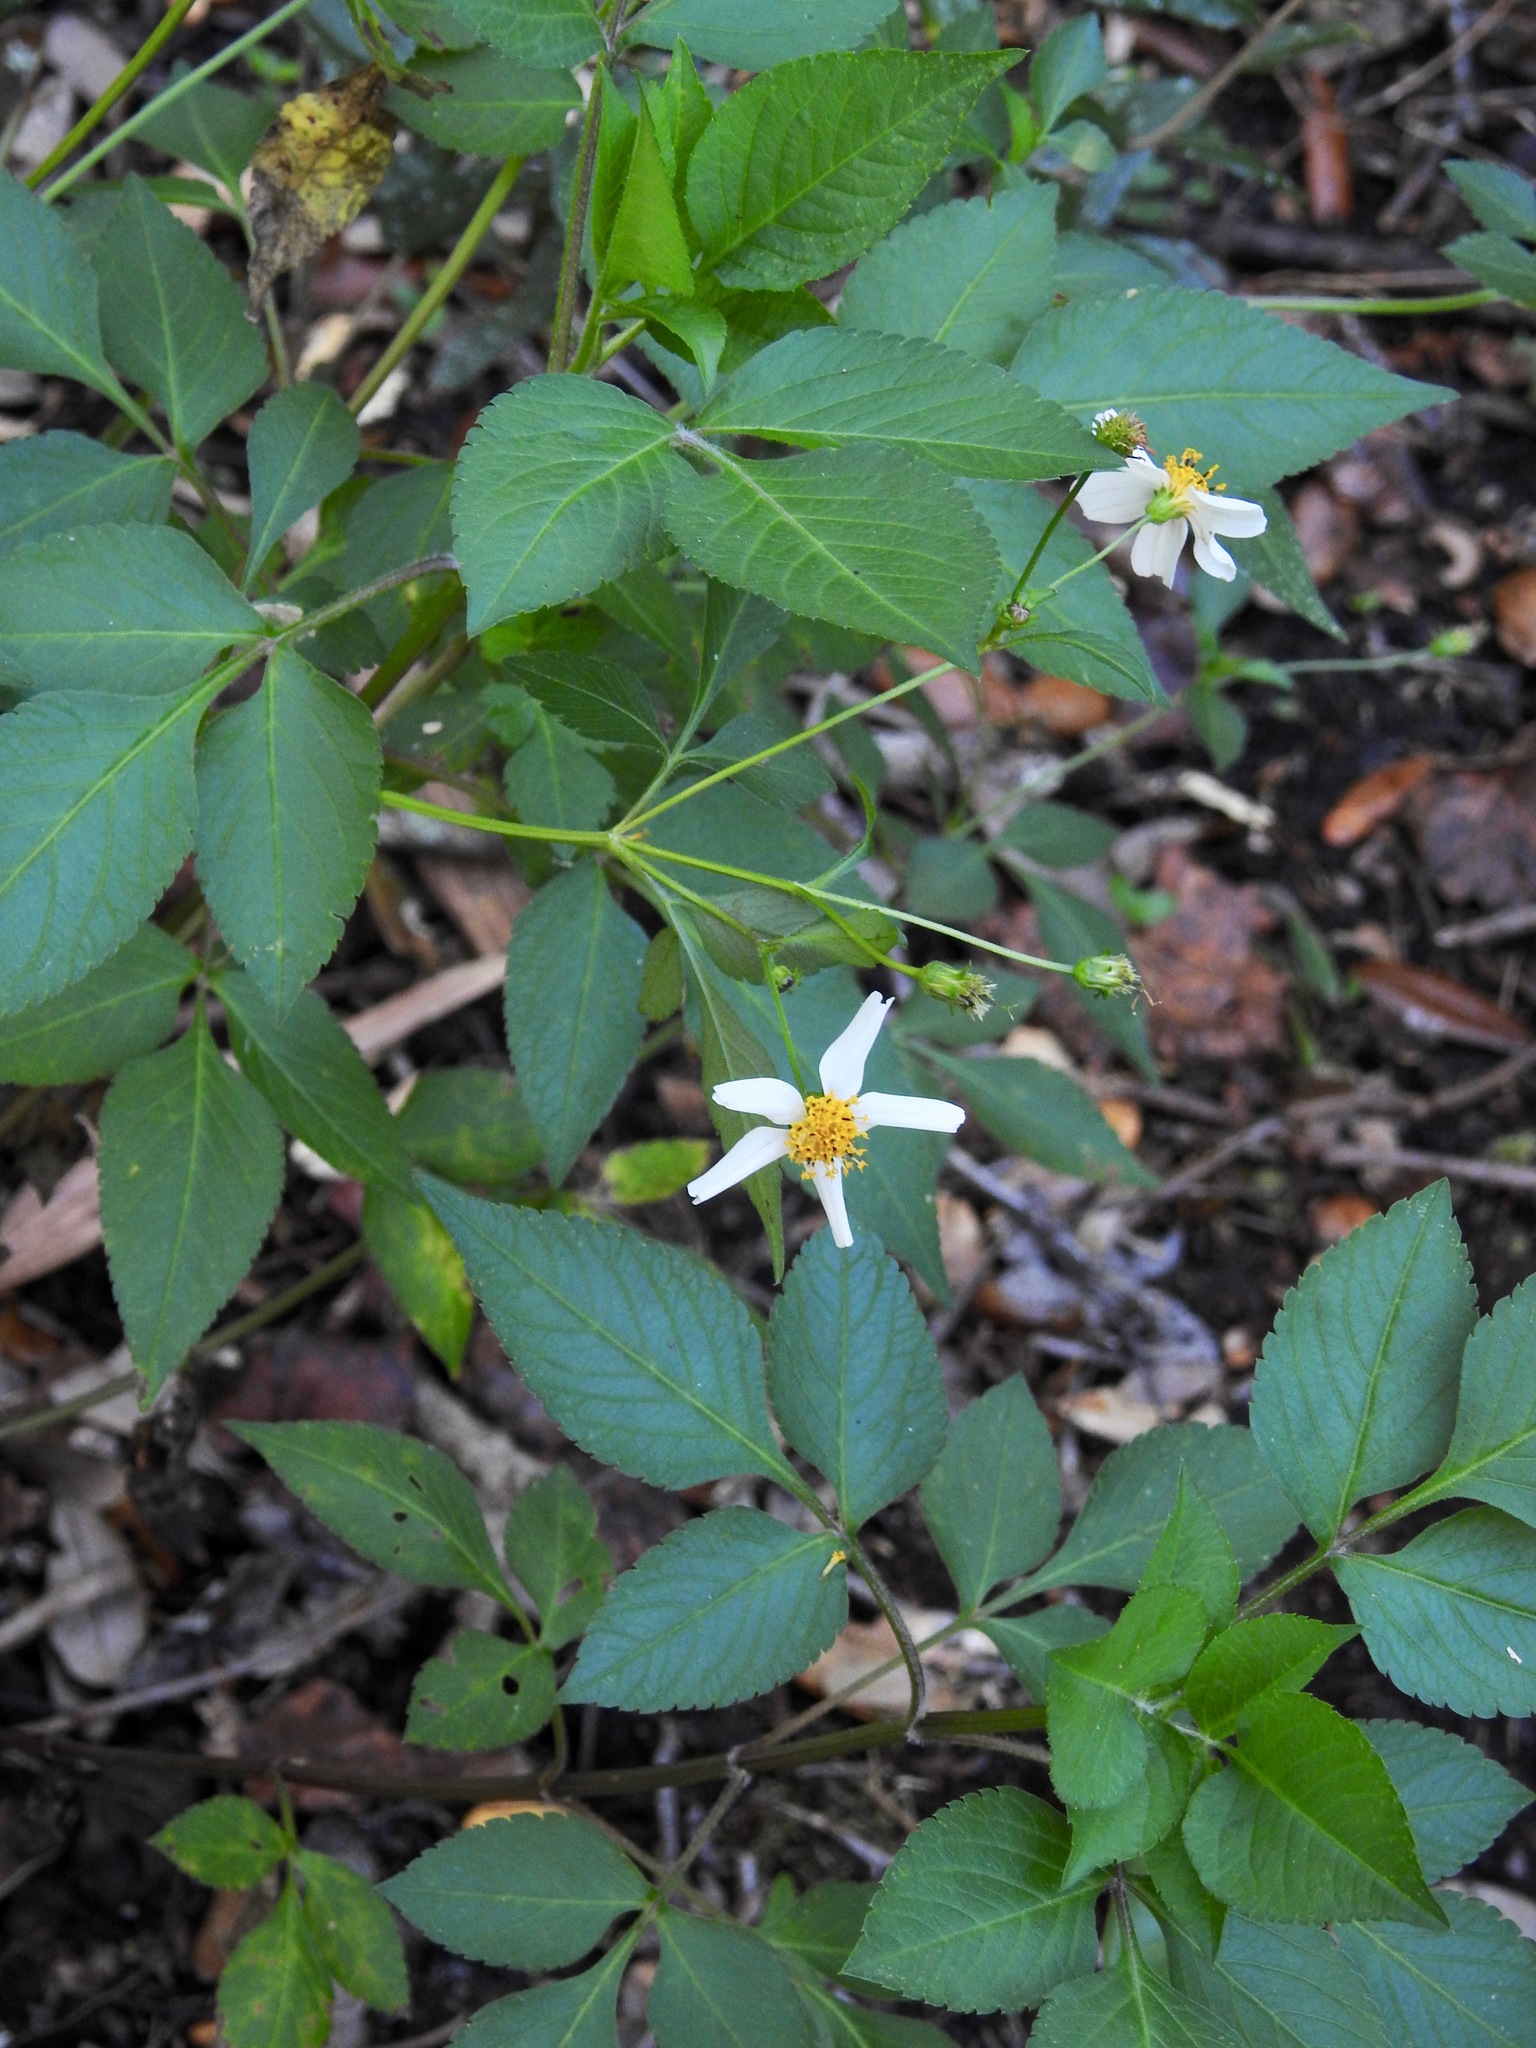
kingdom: Plantae
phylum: Tracheophyta
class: Magnoliopsida
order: Asterales
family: Asteraceae
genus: Bidens
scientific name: Bidens alba
